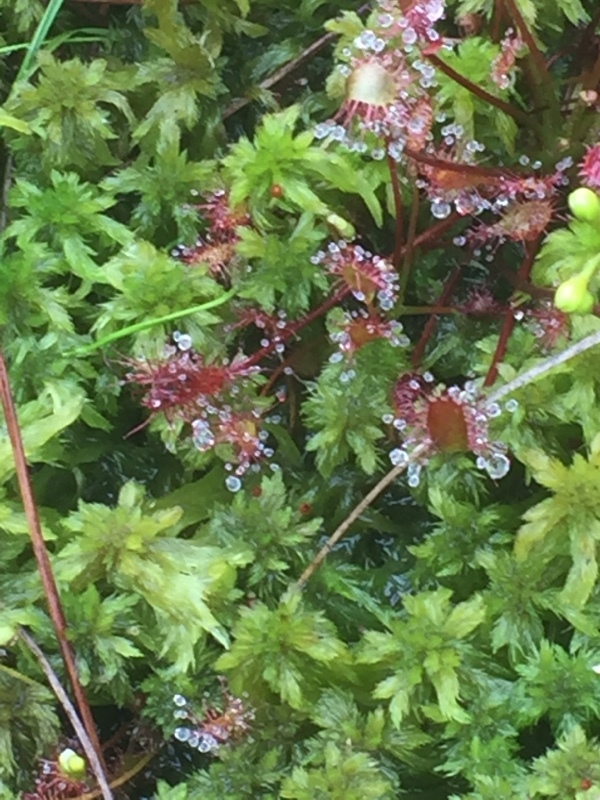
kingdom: Plantae
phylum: Tracheophyta
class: Magnoliopsida
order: Caryophyllales
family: Droseraceae
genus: Drosera
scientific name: Drosera intermedia
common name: Oblong-leaved sundew
